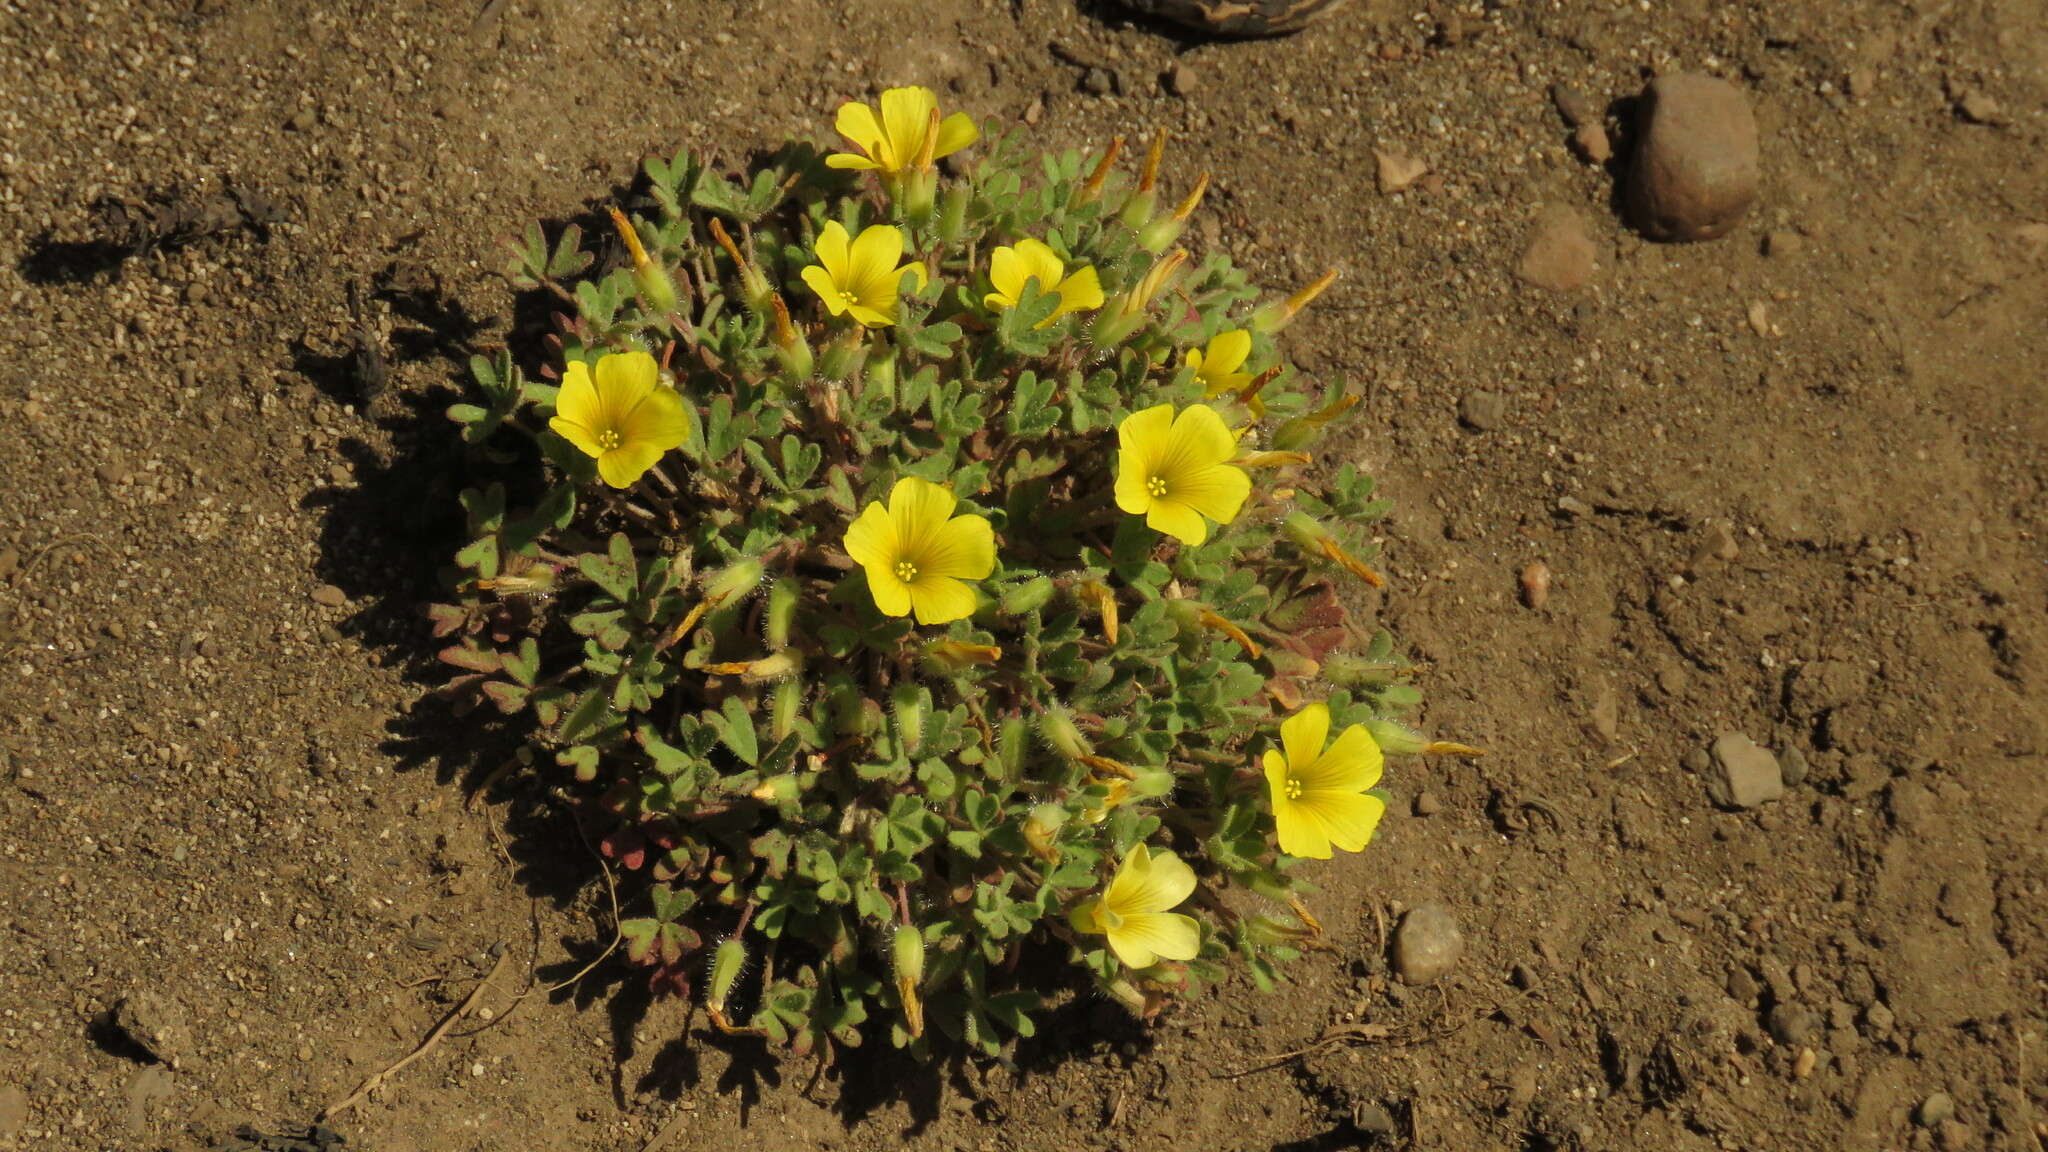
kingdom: Plantae
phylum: Tracheophyta
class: Magnoliopsida
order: Oxalidales
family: Oxalidaceae
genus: Oxalis
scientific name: Oxalis nahuelhuapiensis
